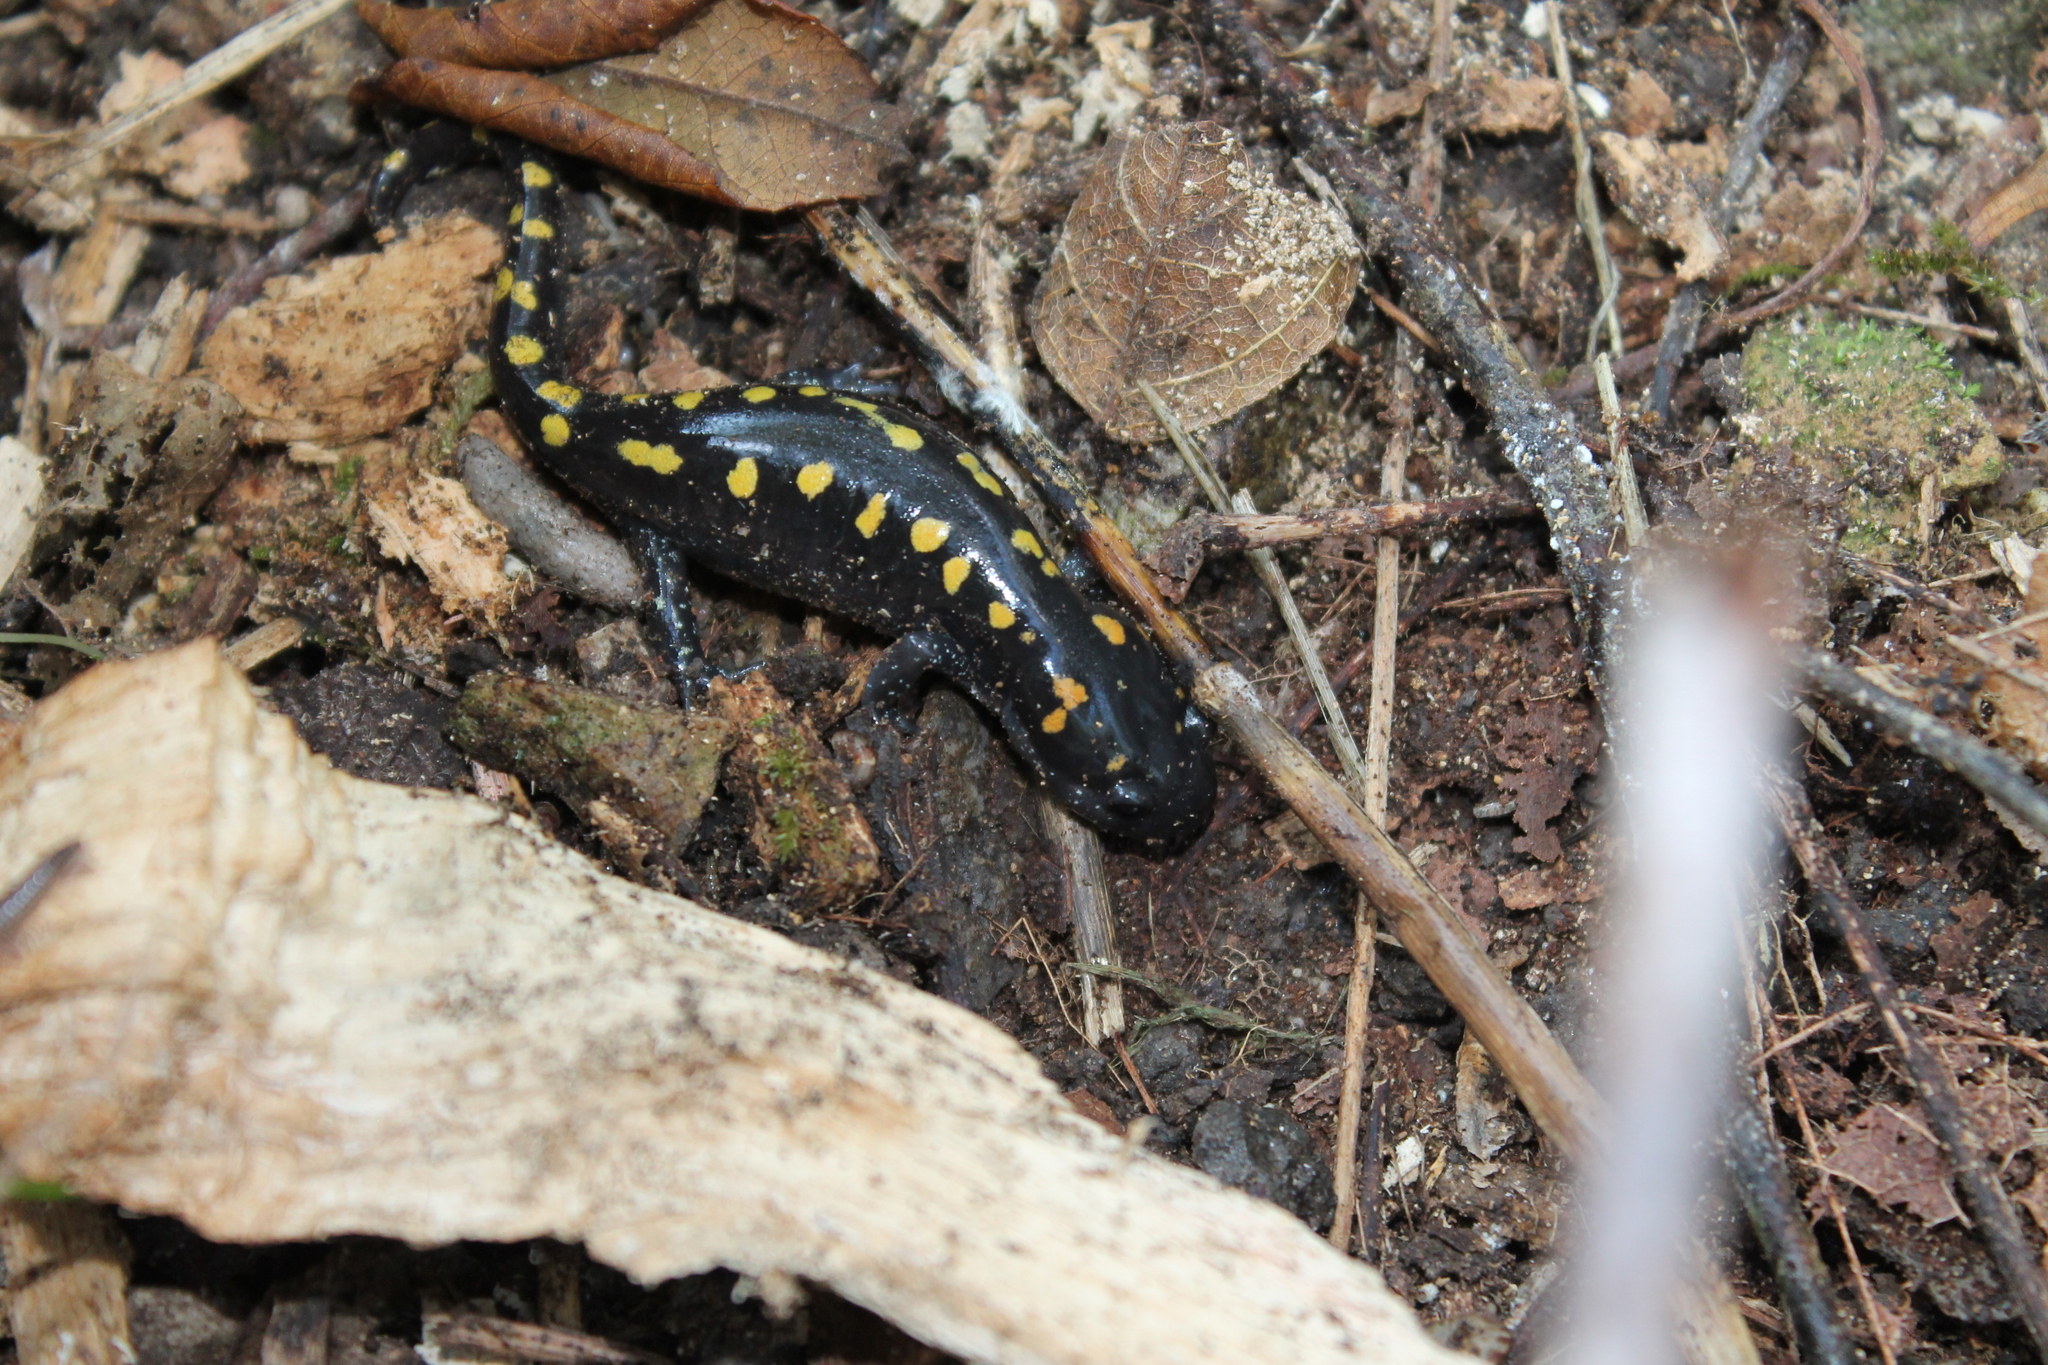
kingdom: Animalia
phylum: Chordata
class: Amphibia
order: Caudata
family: Ambystomatidae
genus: Ambystoma
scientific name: Ambystoma maculatum
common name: Spotted salamander
